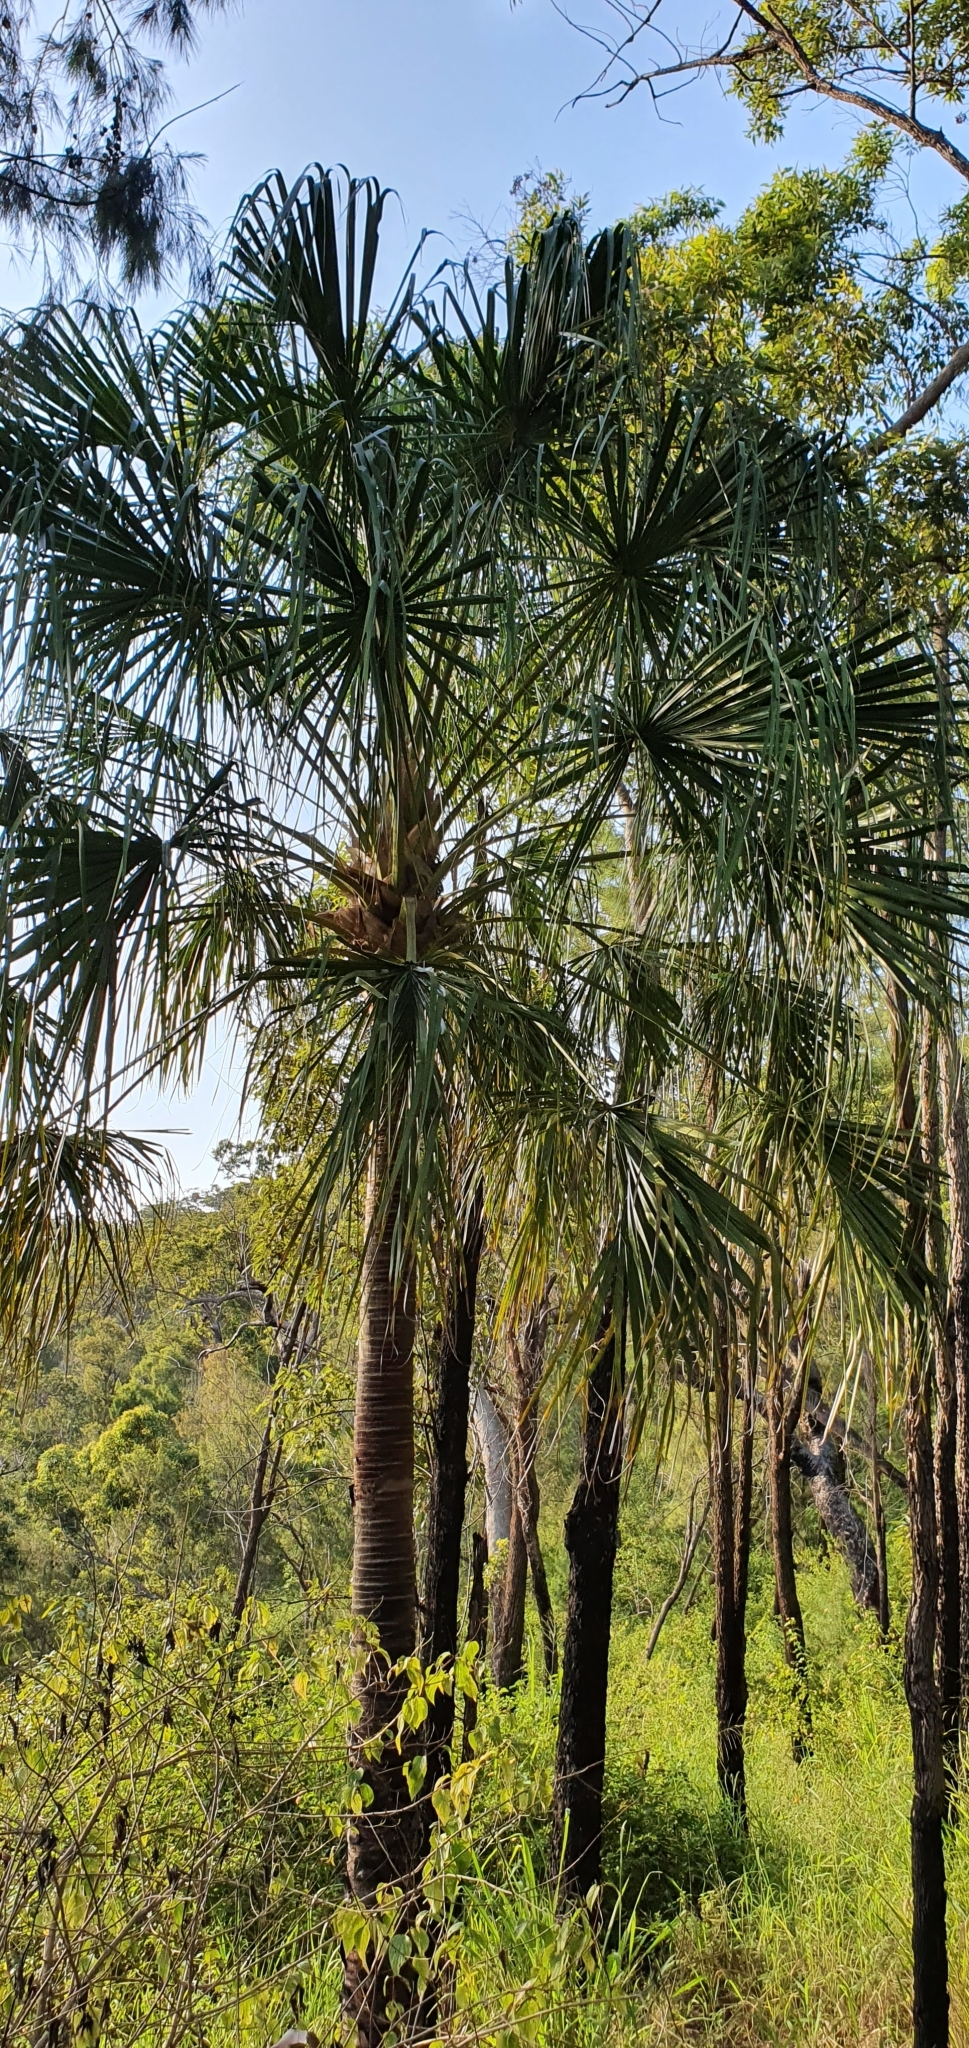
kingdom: Plantae
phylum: Tracheophyta
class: Liliopsida
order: Arecales
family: Arecaceae
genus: Livistona
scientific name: Livistona decora
